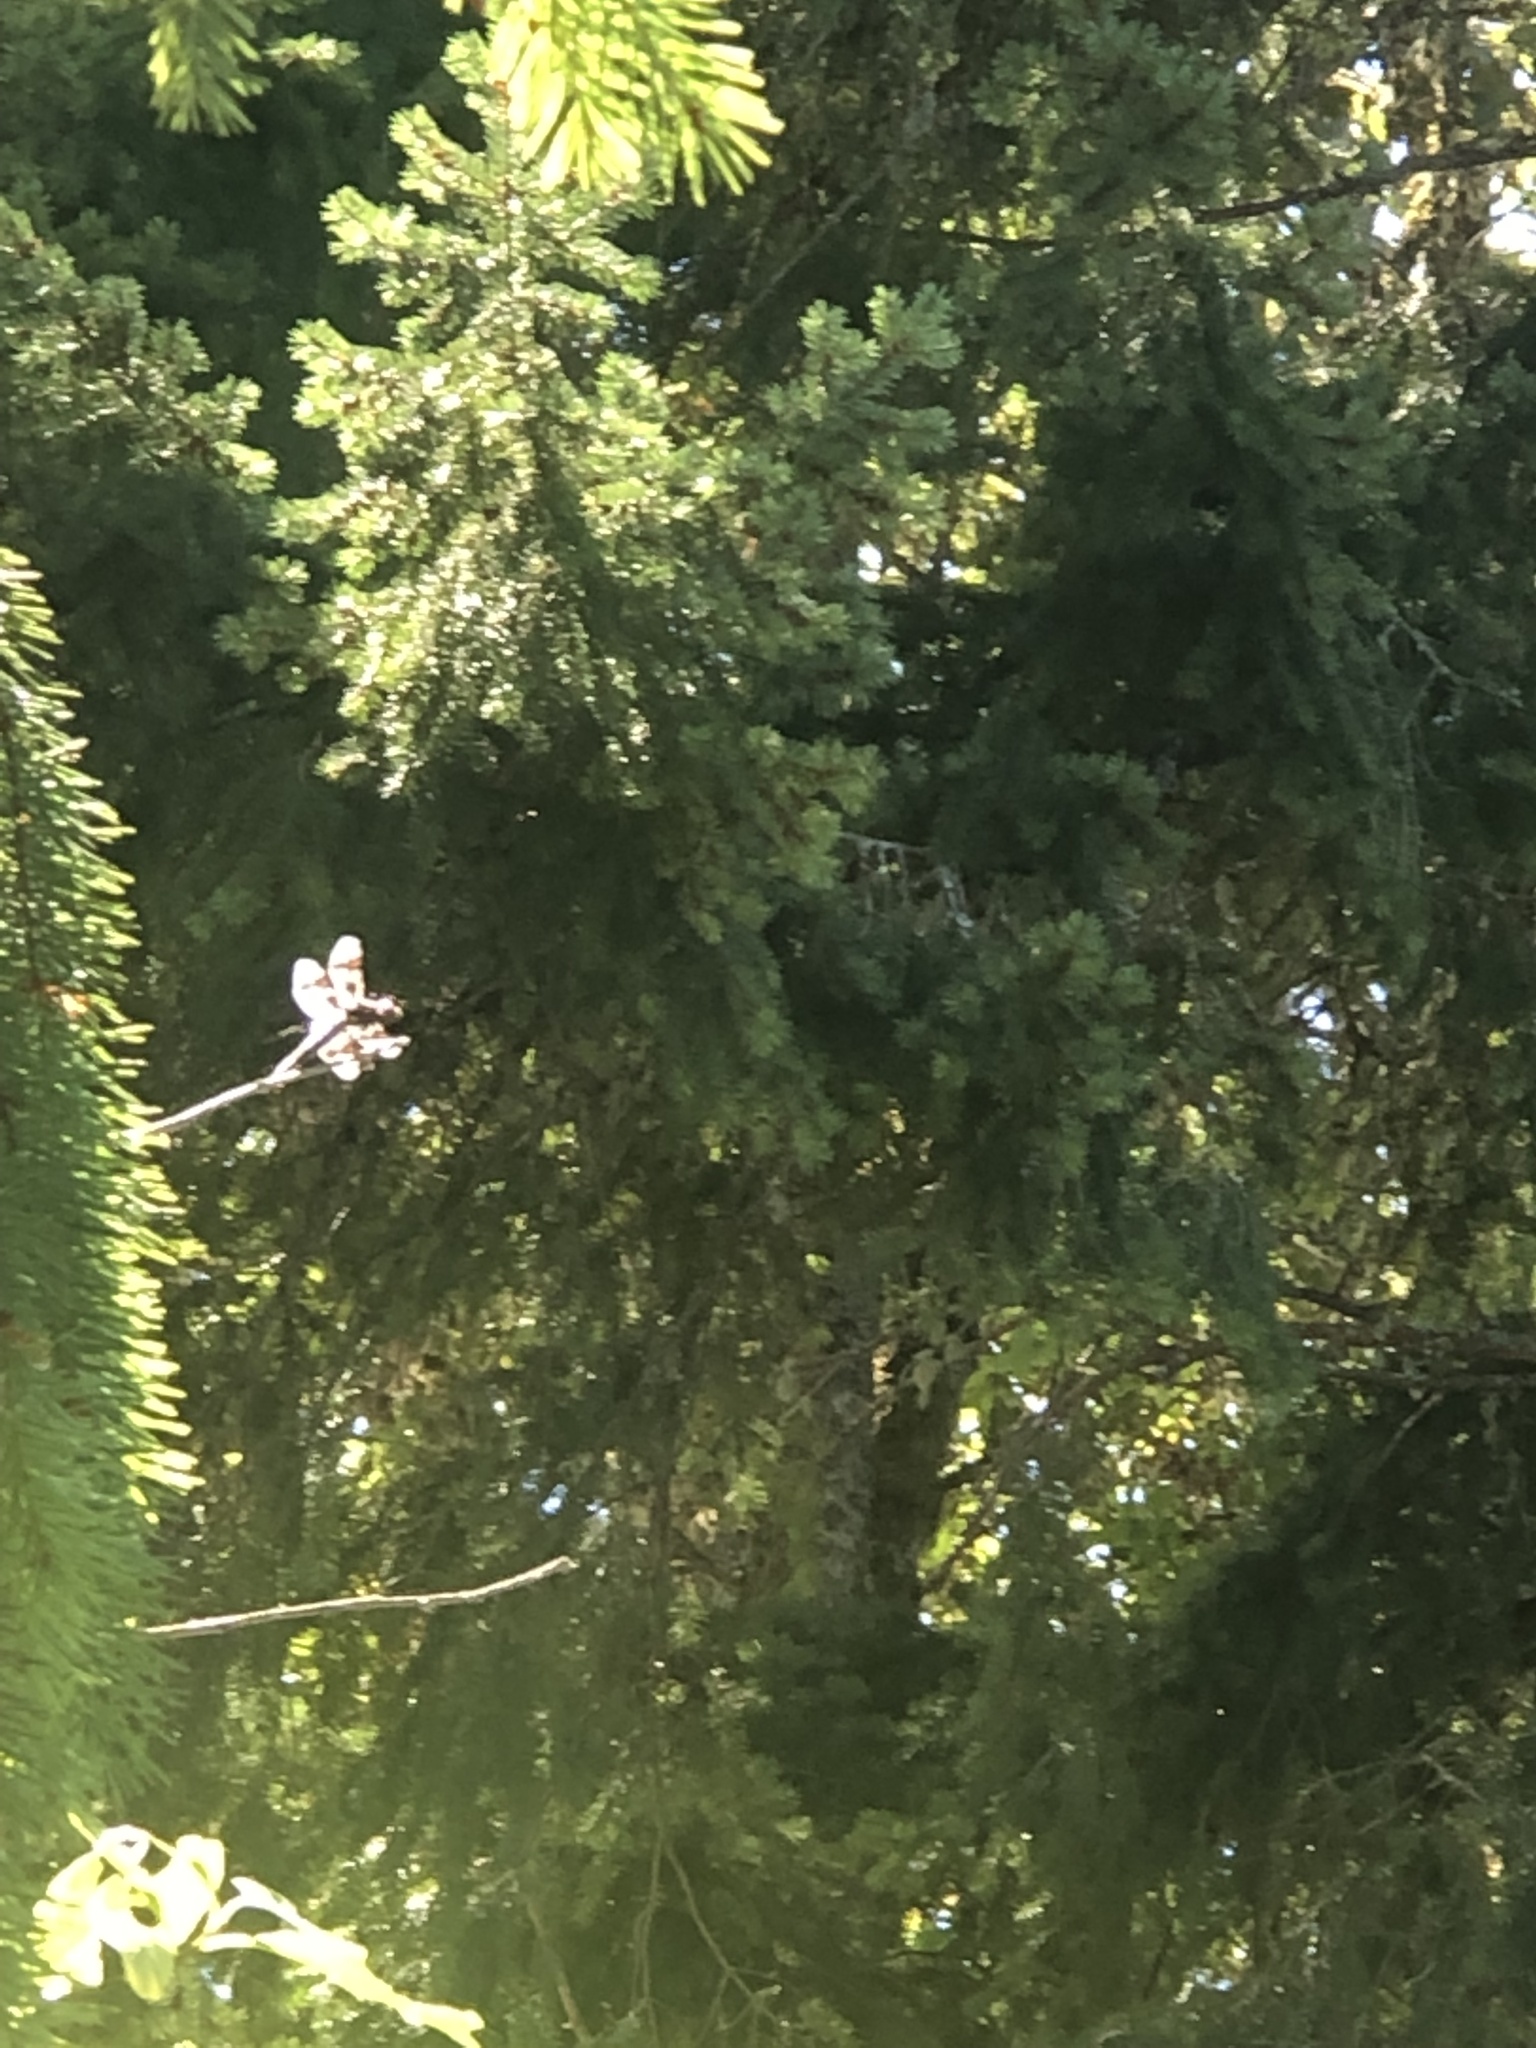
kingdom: Animalia
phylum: Arthropoda
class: Insecta
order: Odonata
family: Libellulidae
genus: Libellula
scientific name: Libellula forensis
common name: Eight-spotted skimmer
